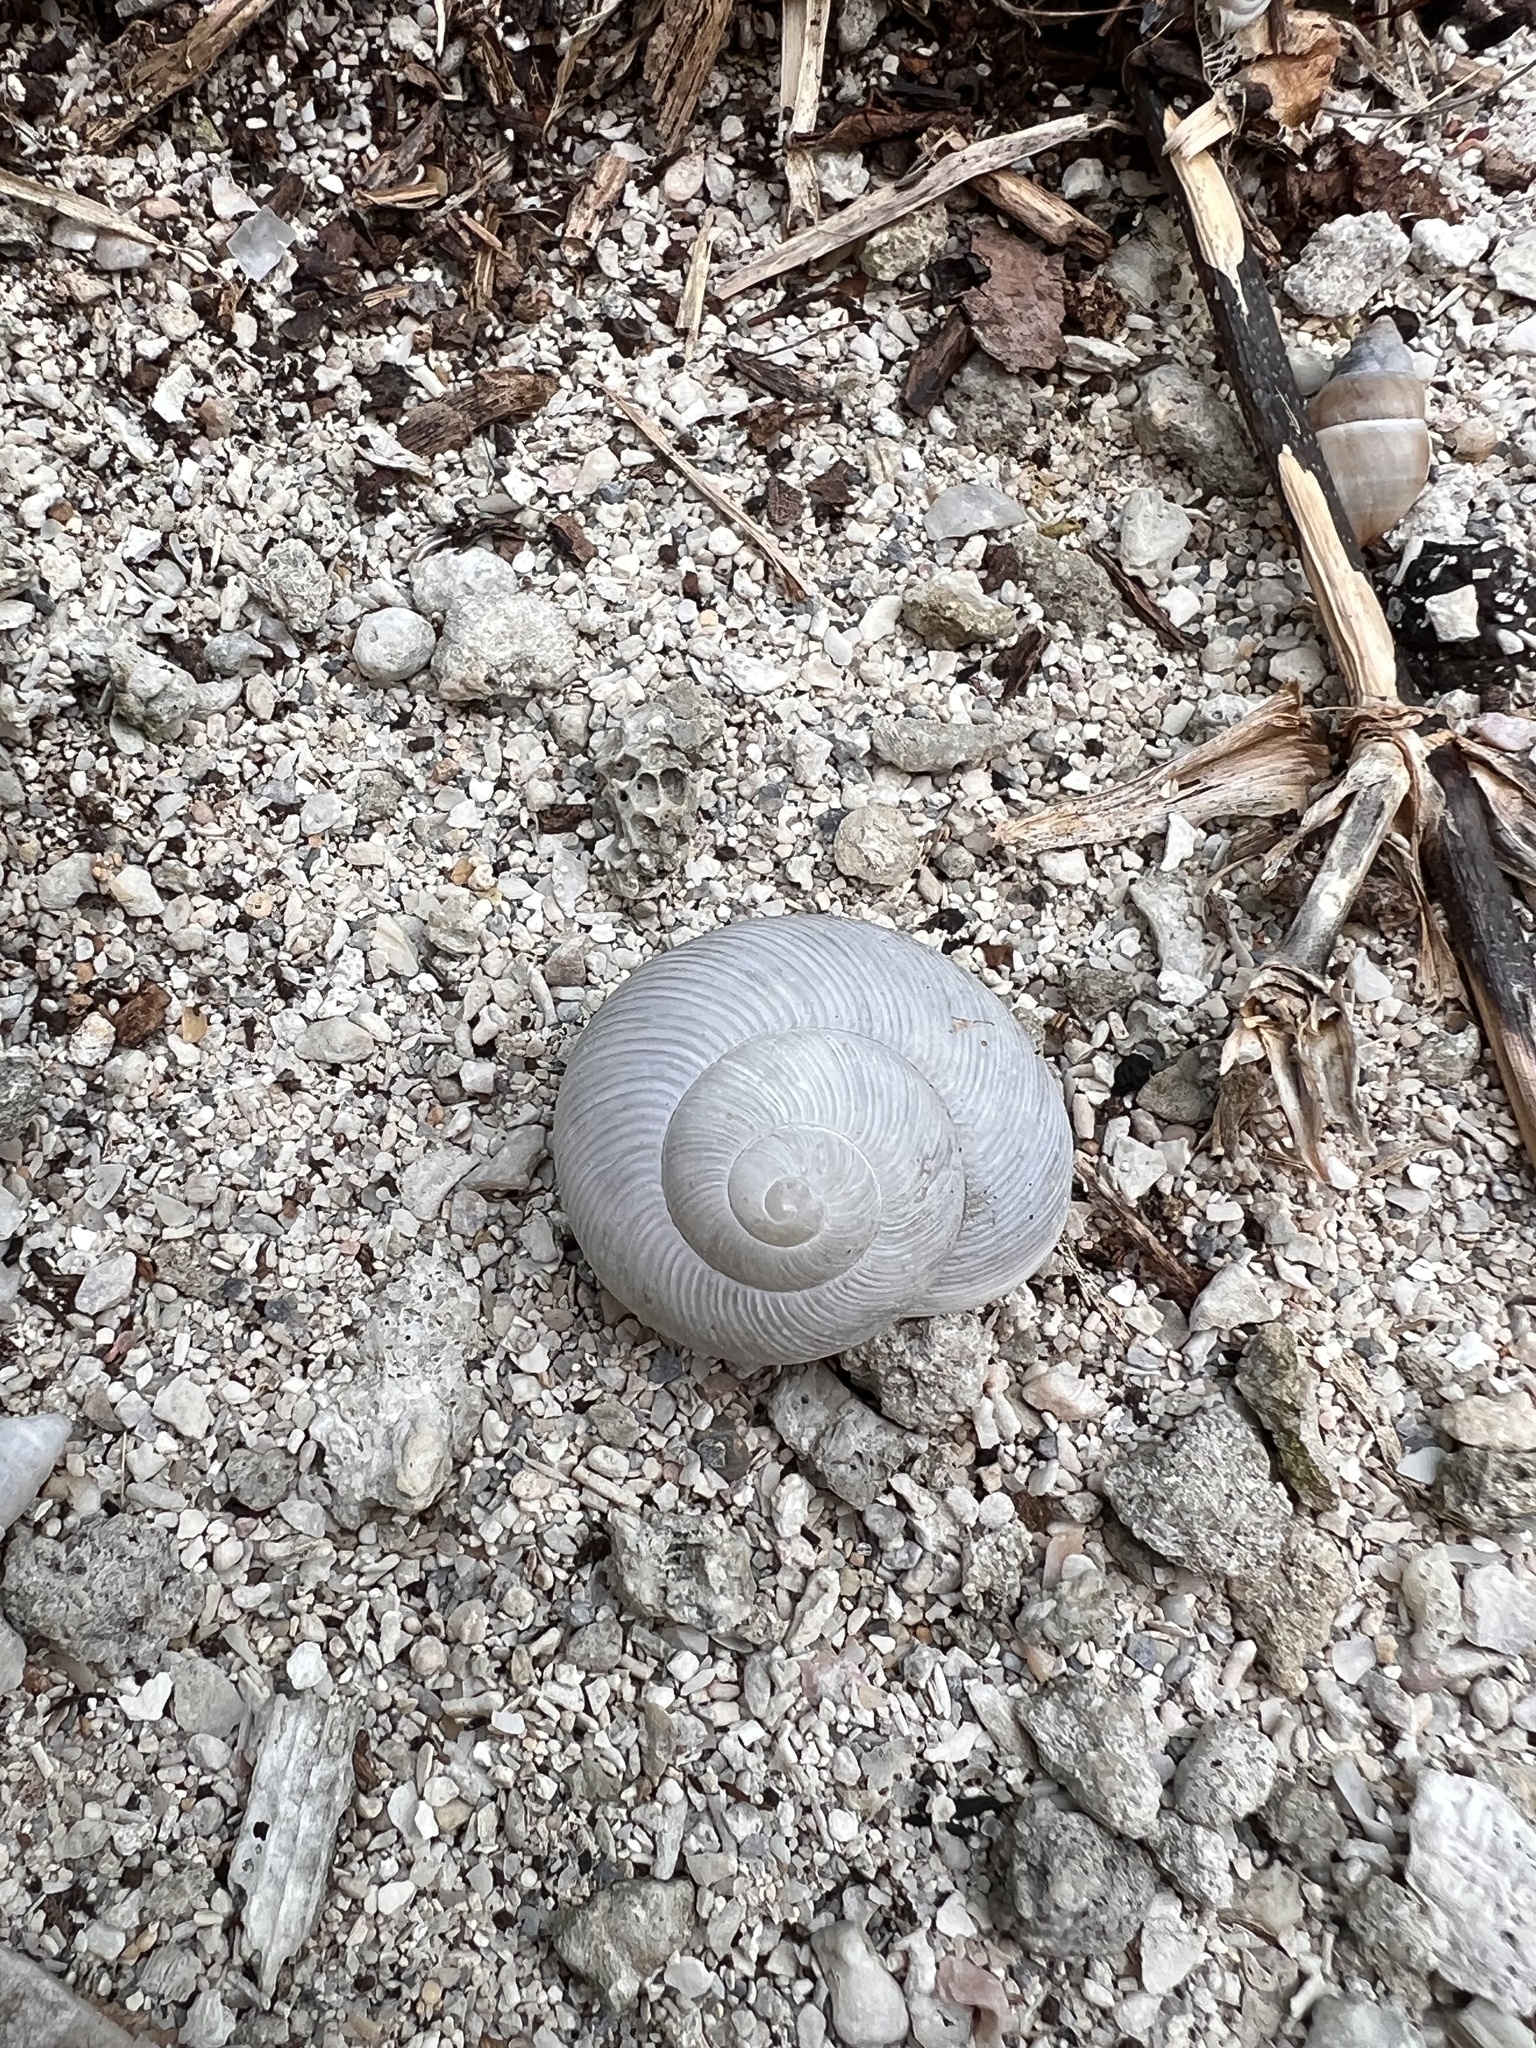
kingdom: Animalia
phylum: Mollusca
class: Gastropoda
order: Stylommatophora
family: Zachrysiidae
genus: Zachrysia
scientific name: Zachrysia provisoria
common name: Garden zachrysia
